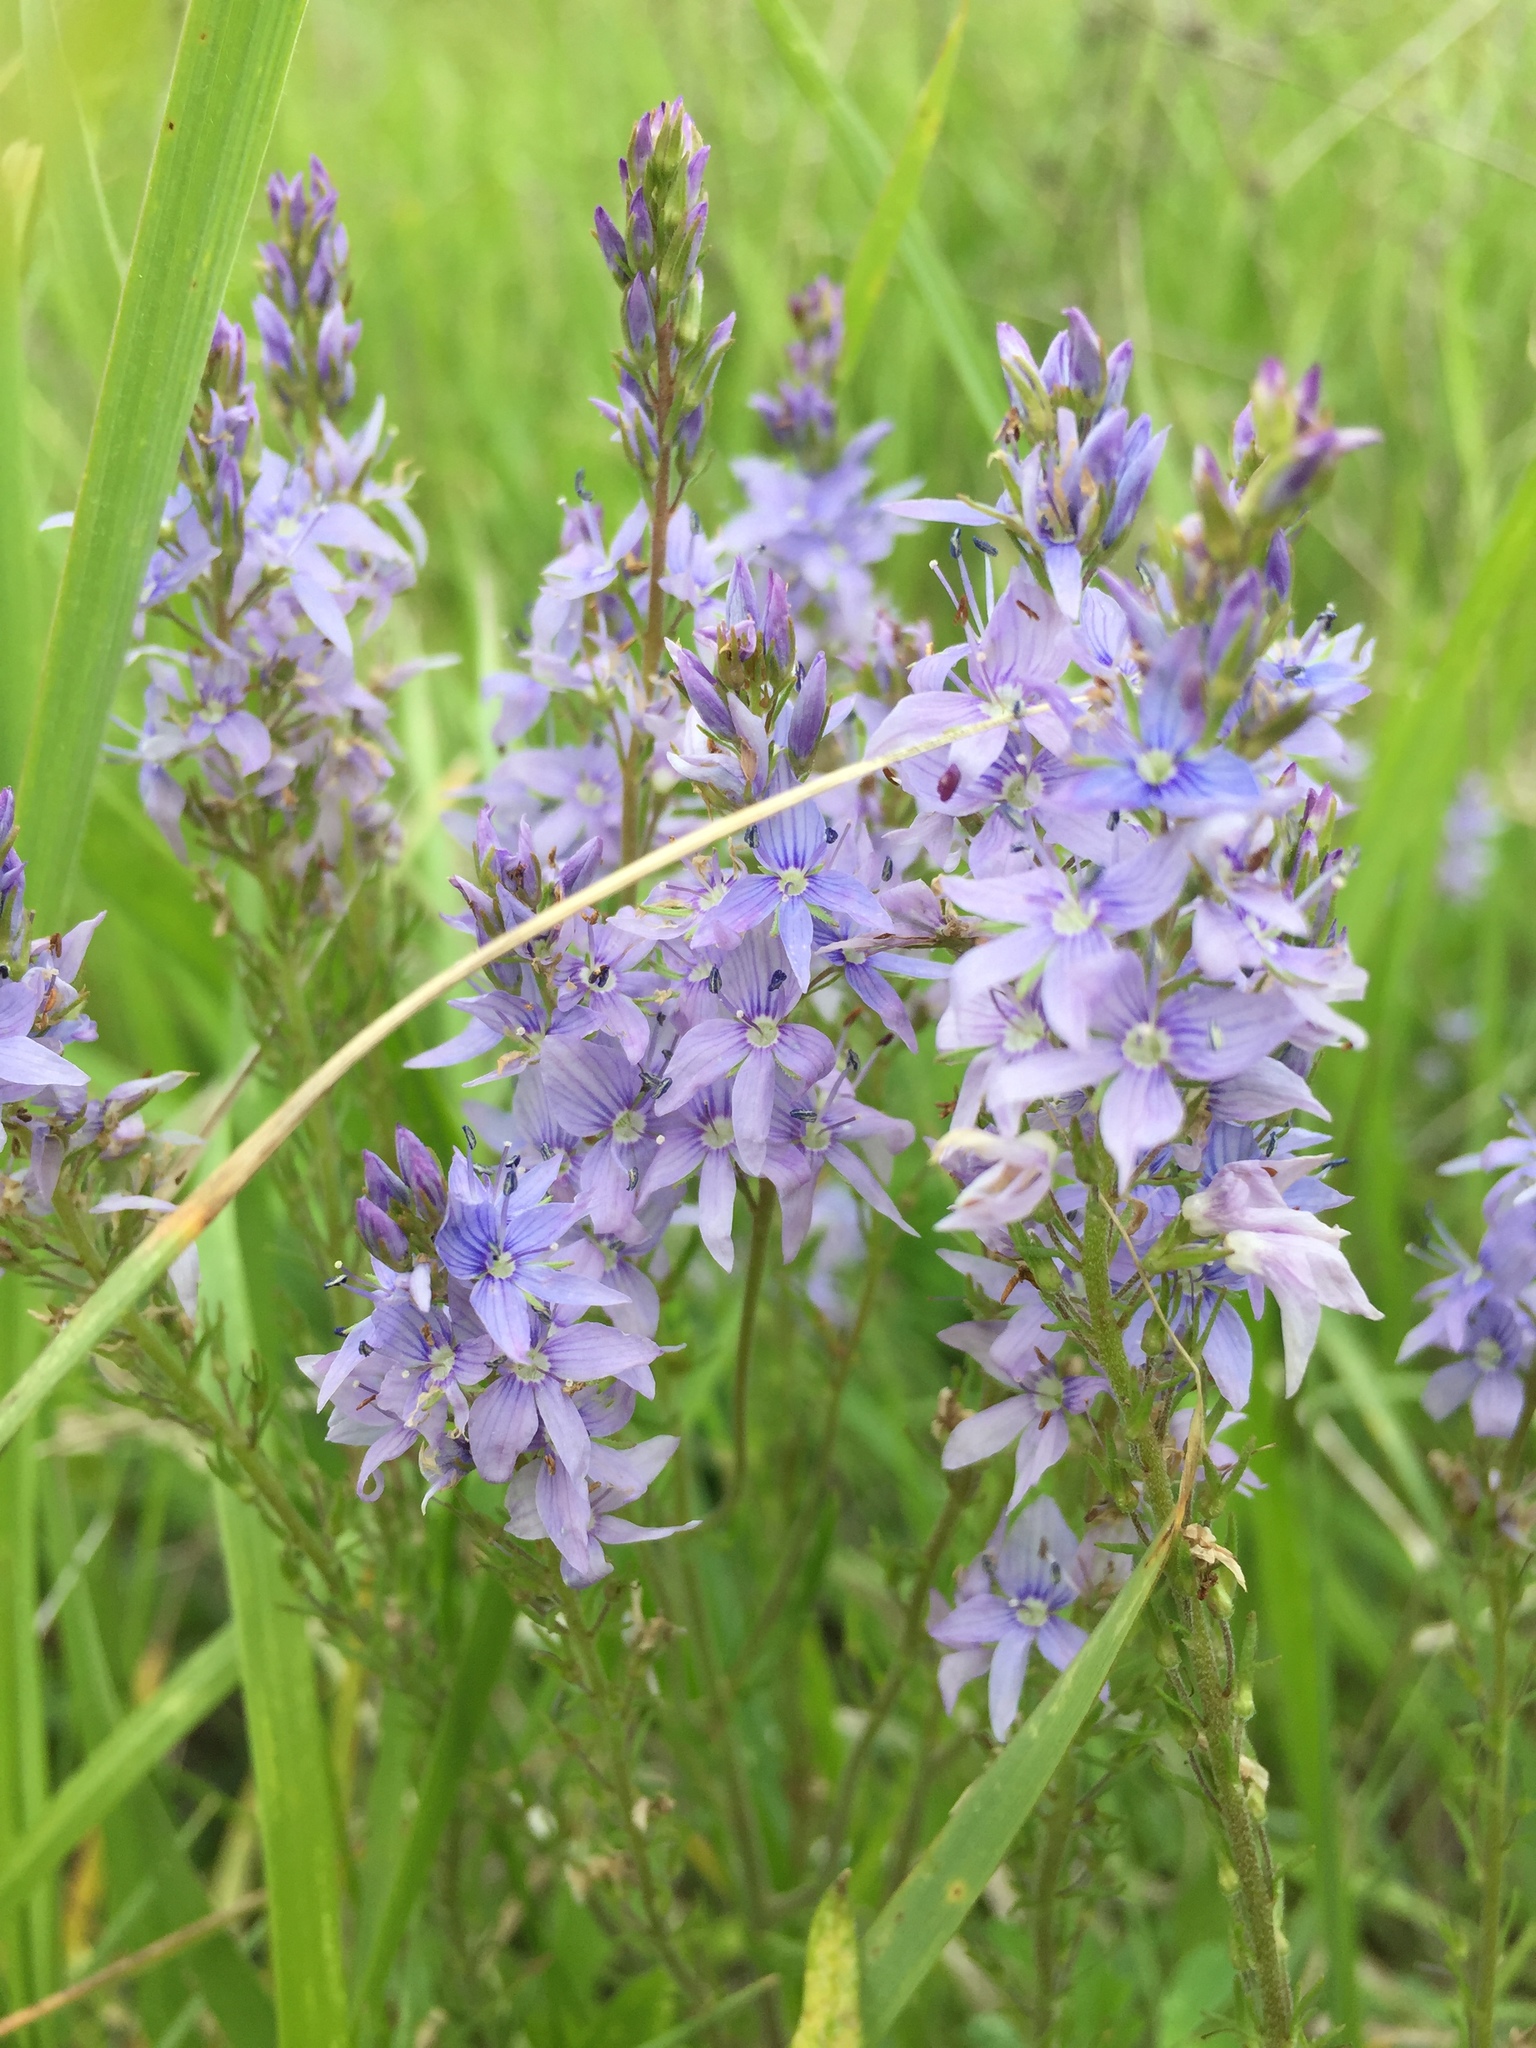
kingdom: Plantae
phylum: Tracheophyta
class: Magnoliopsida
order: Lamiales
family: Plantaginaceae
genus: Veronica
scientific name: Veronica austriaca
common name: Large speedwell
